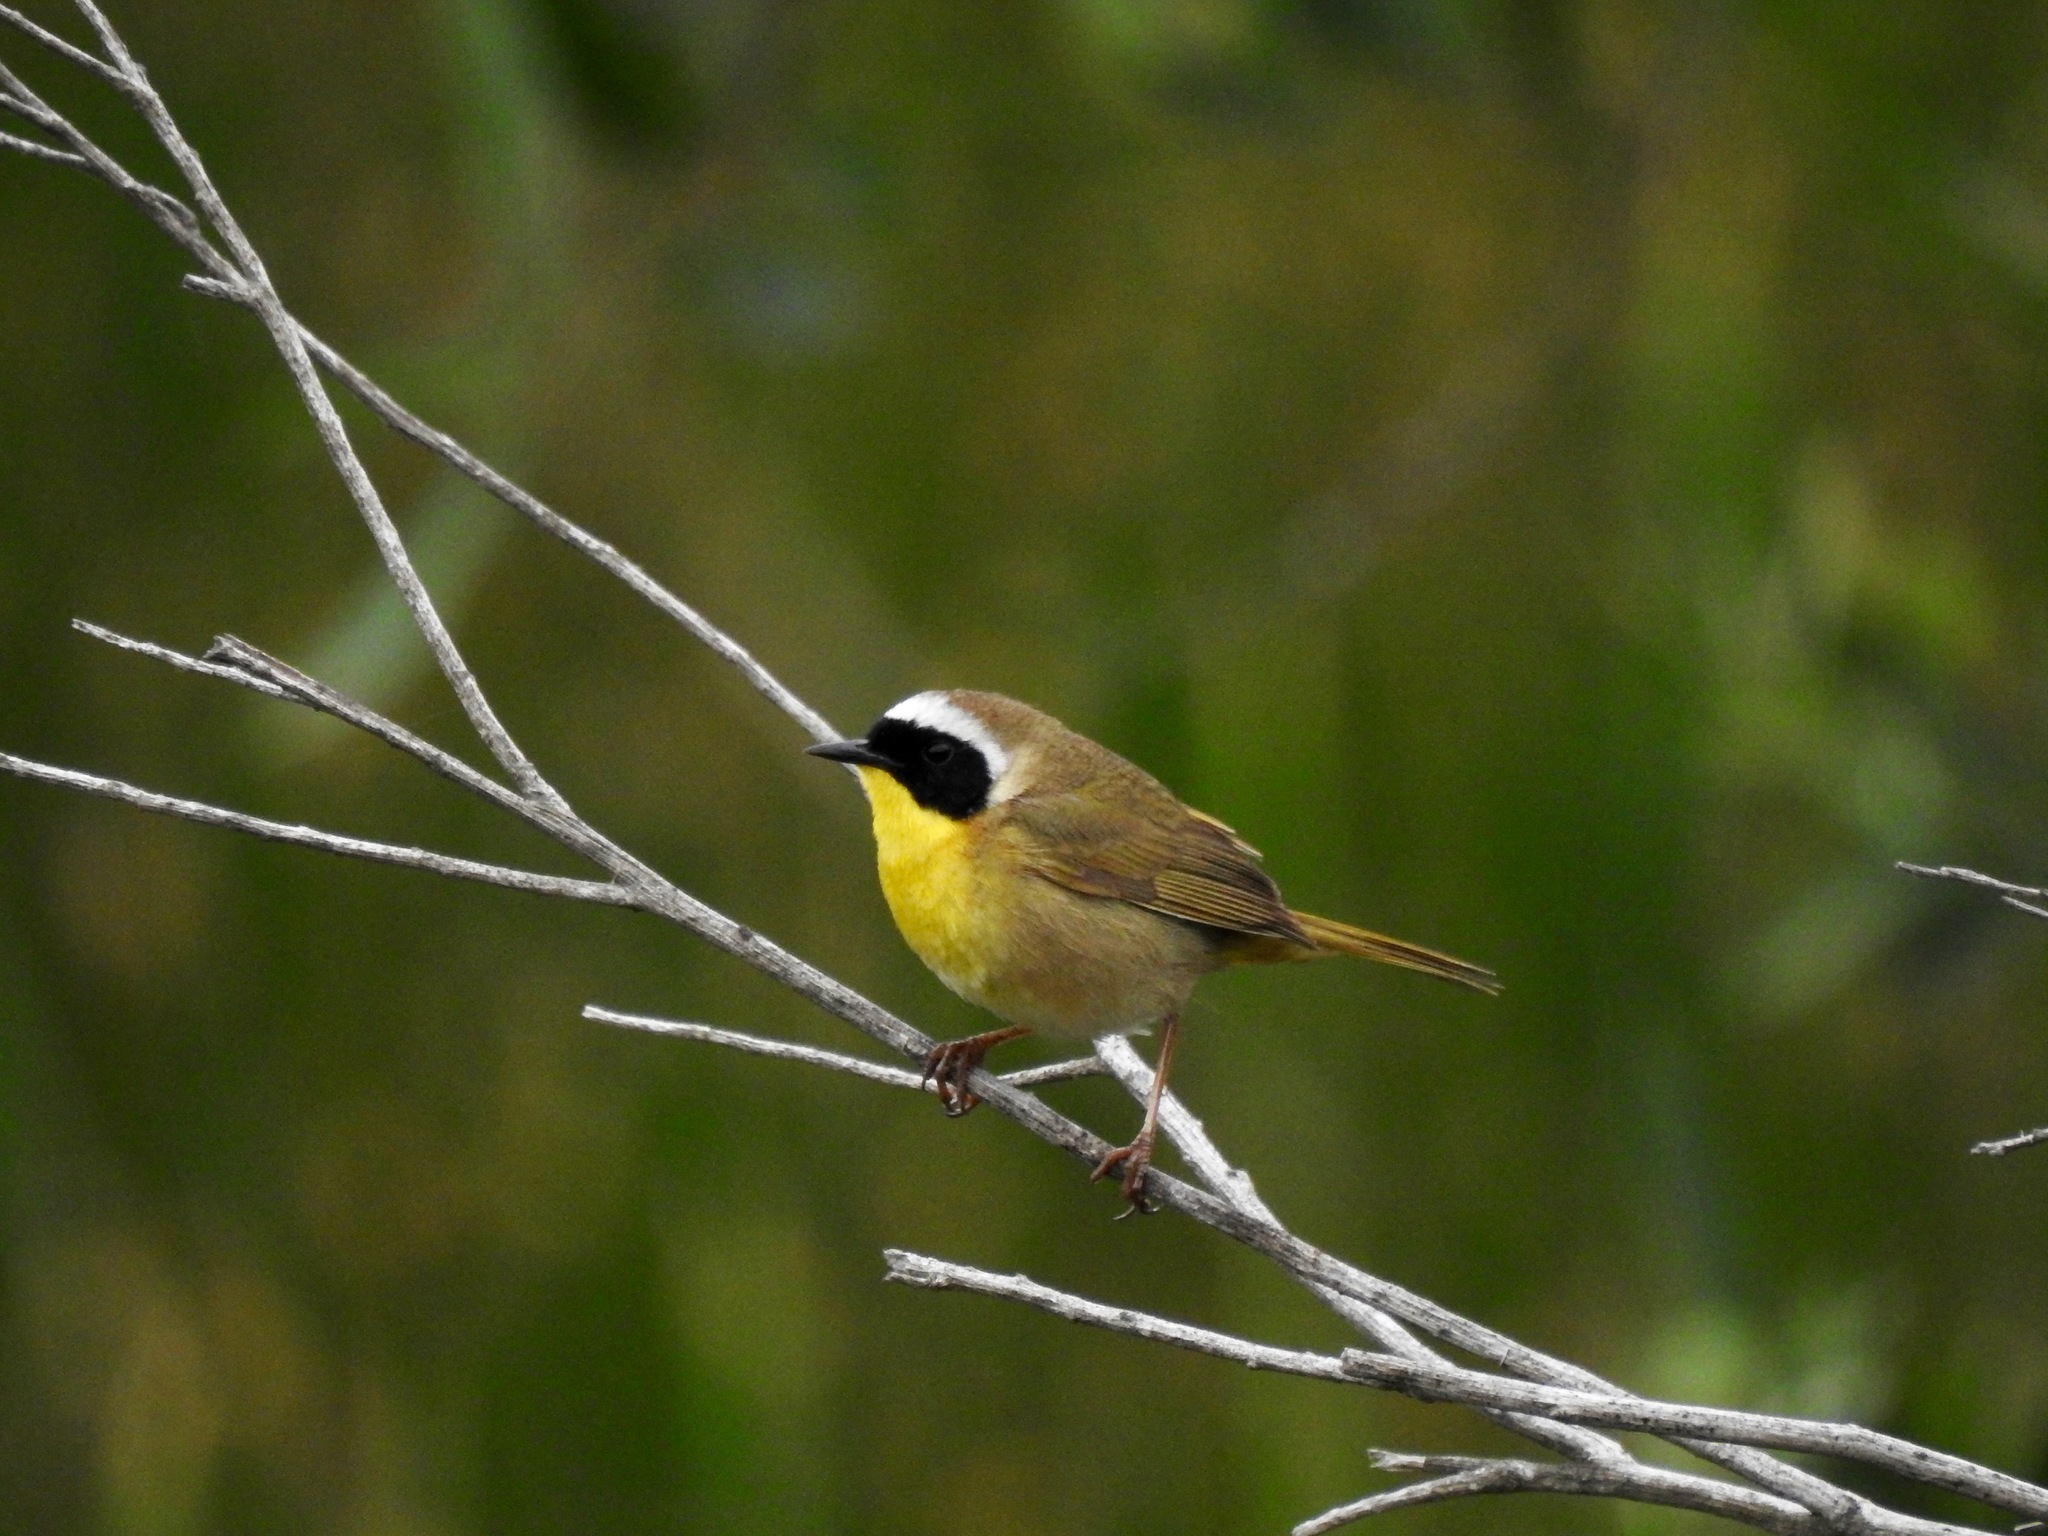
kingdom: Animalia
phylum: Chordata
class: Aves
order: Passeriformes
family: Parulidae
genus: Geothlypis
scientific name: Geothlypis trichas
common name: Common yellowthroat
